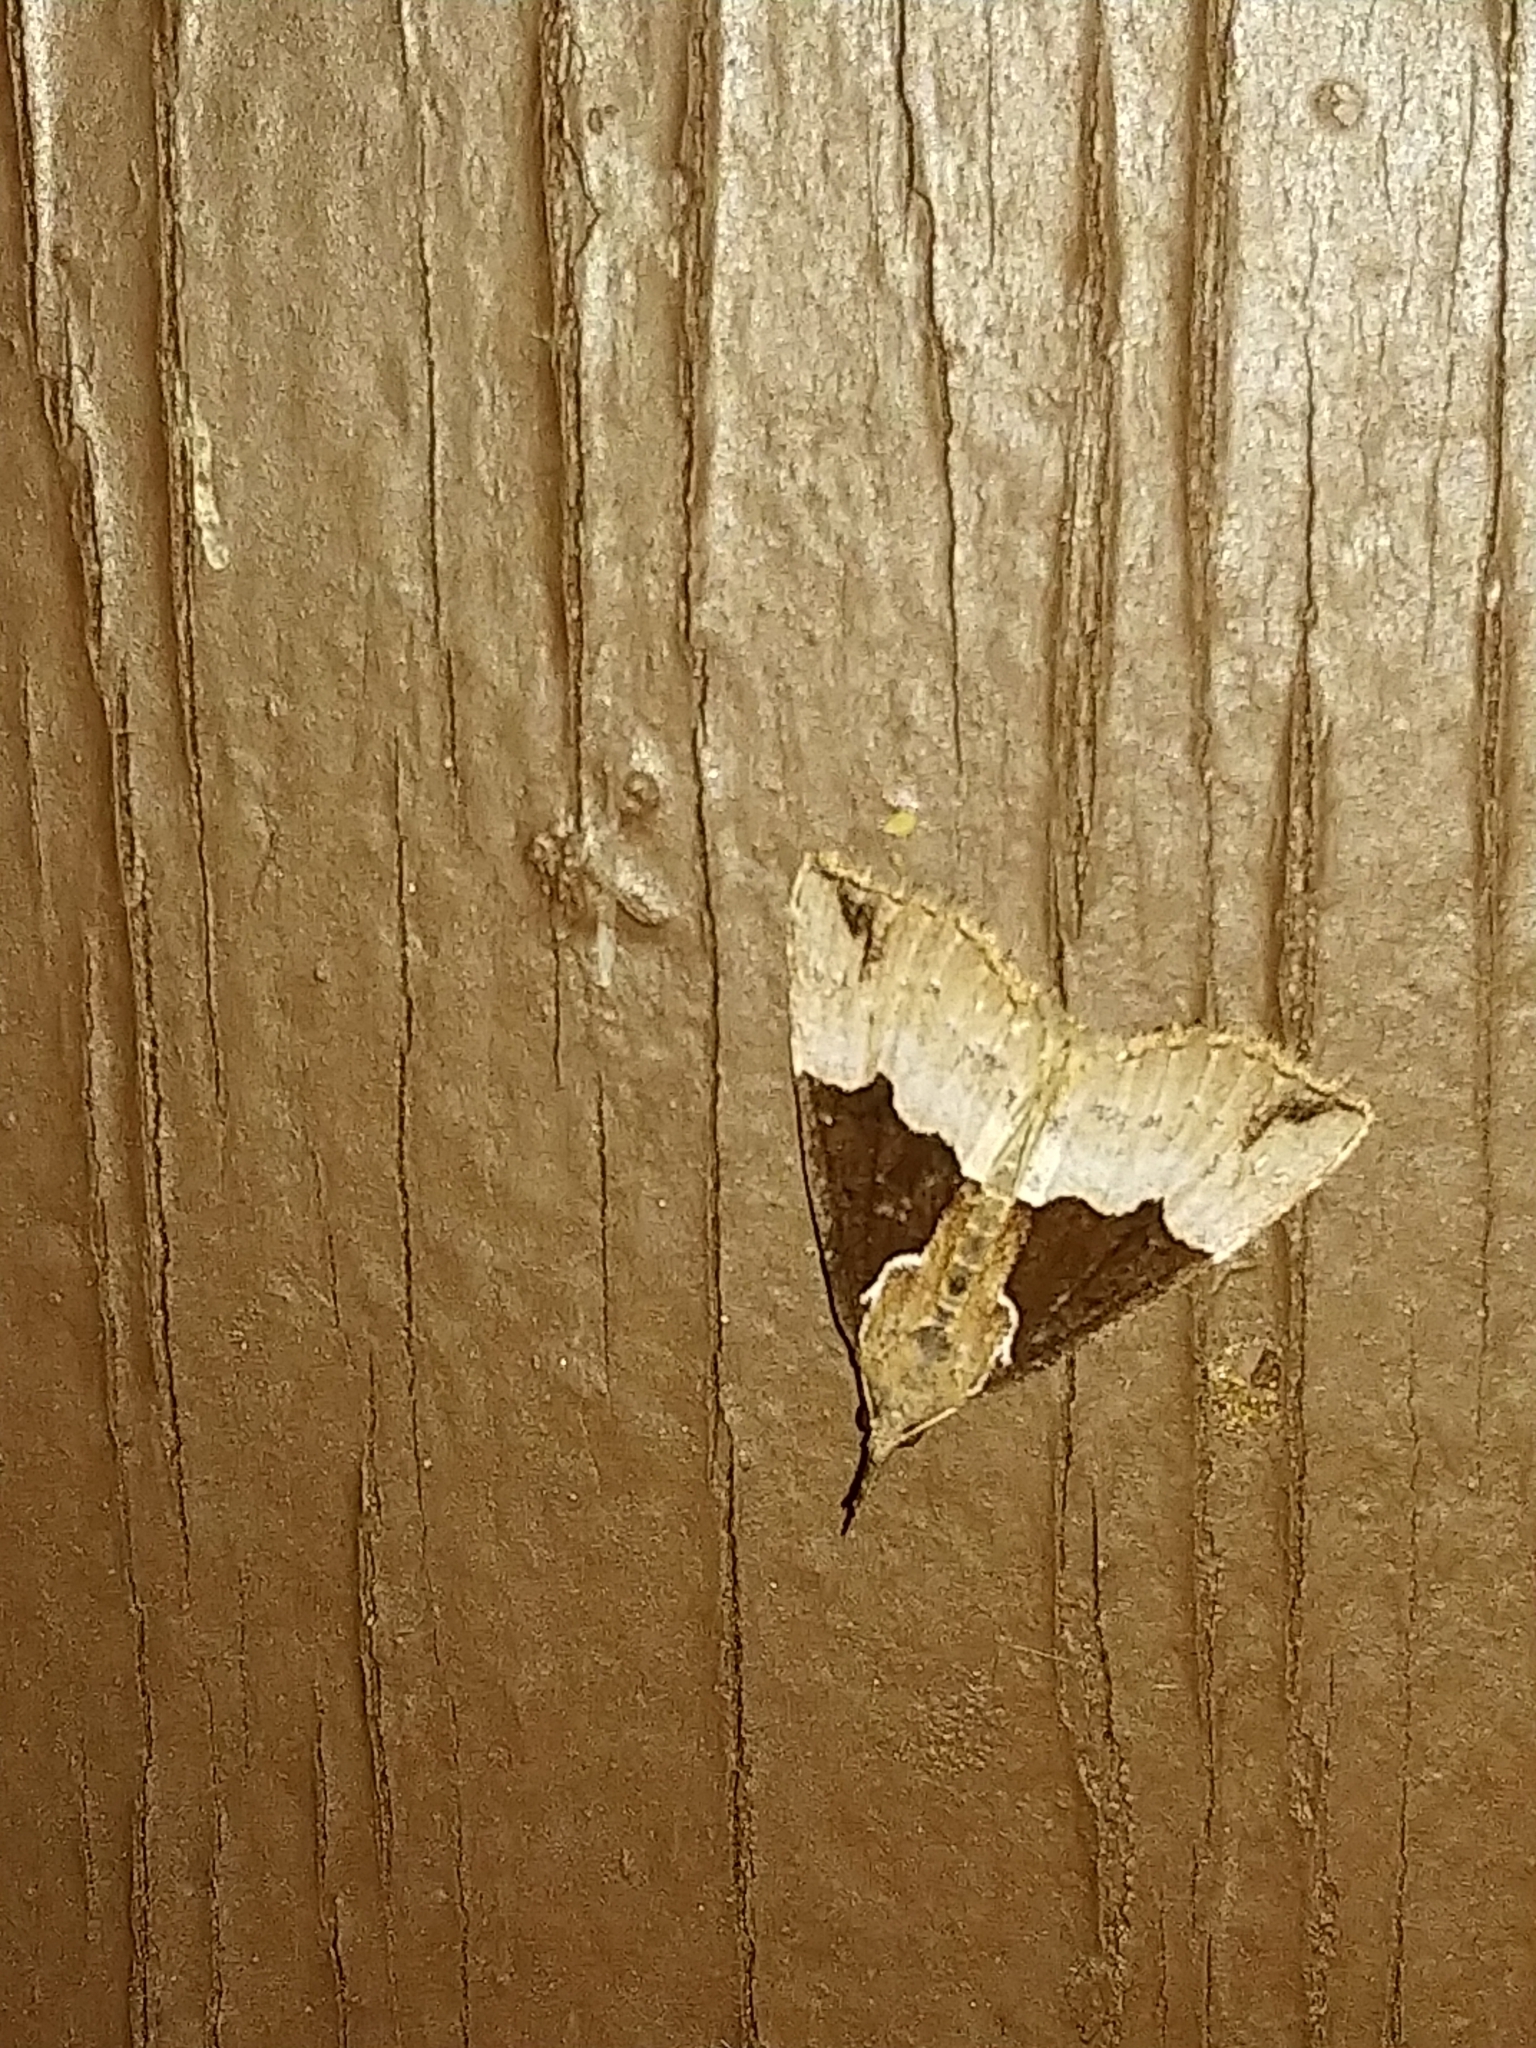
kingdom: Animalia
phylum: Arthropoda
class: Insecta
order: Lepidoptera
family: Erebidae
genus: Hypena
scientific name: Hypena bijugalis
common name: Dimorphic bomolocha moth
